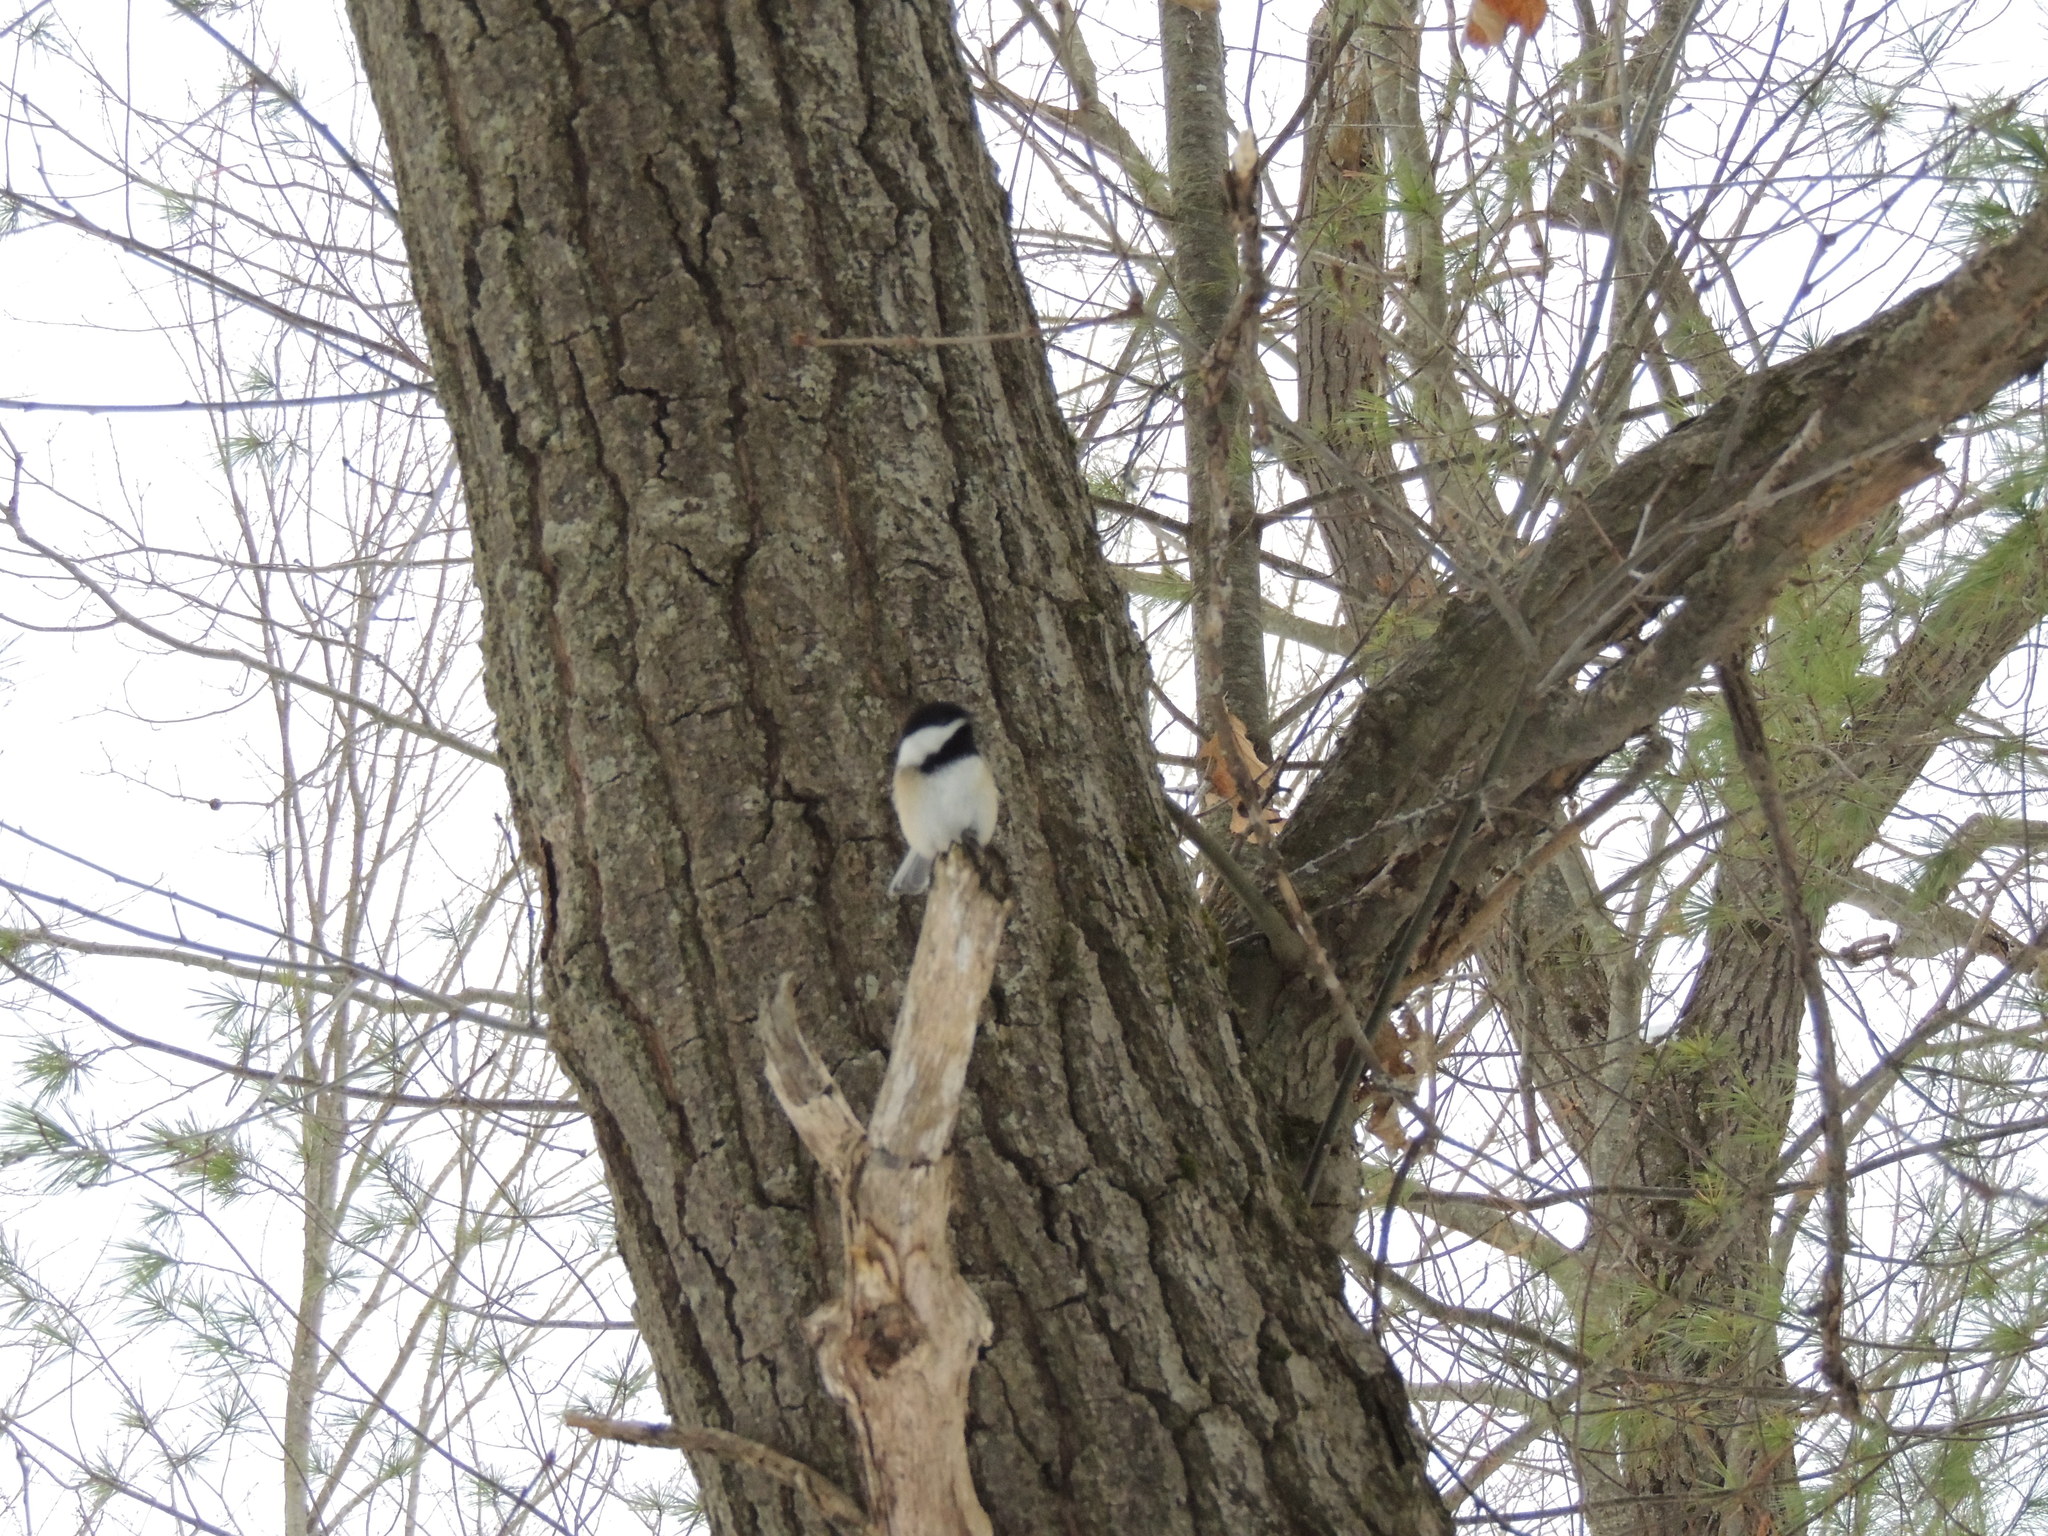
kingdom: Animalia
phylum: Chordata
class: Aves
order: Passeriformes
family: Paridae
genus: Poecile
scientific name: Poecile atricapillus
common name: Black-capped chickadee
